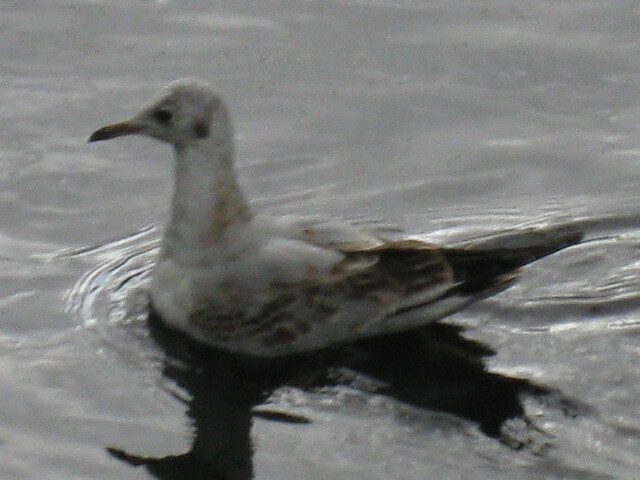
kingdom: Animalia
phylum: Chordata
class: Aves
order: Charadriiformes
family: Laridae
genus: Chroicocephalus
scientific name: Chroicocephalus ridibundus
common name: Black-headed gull
